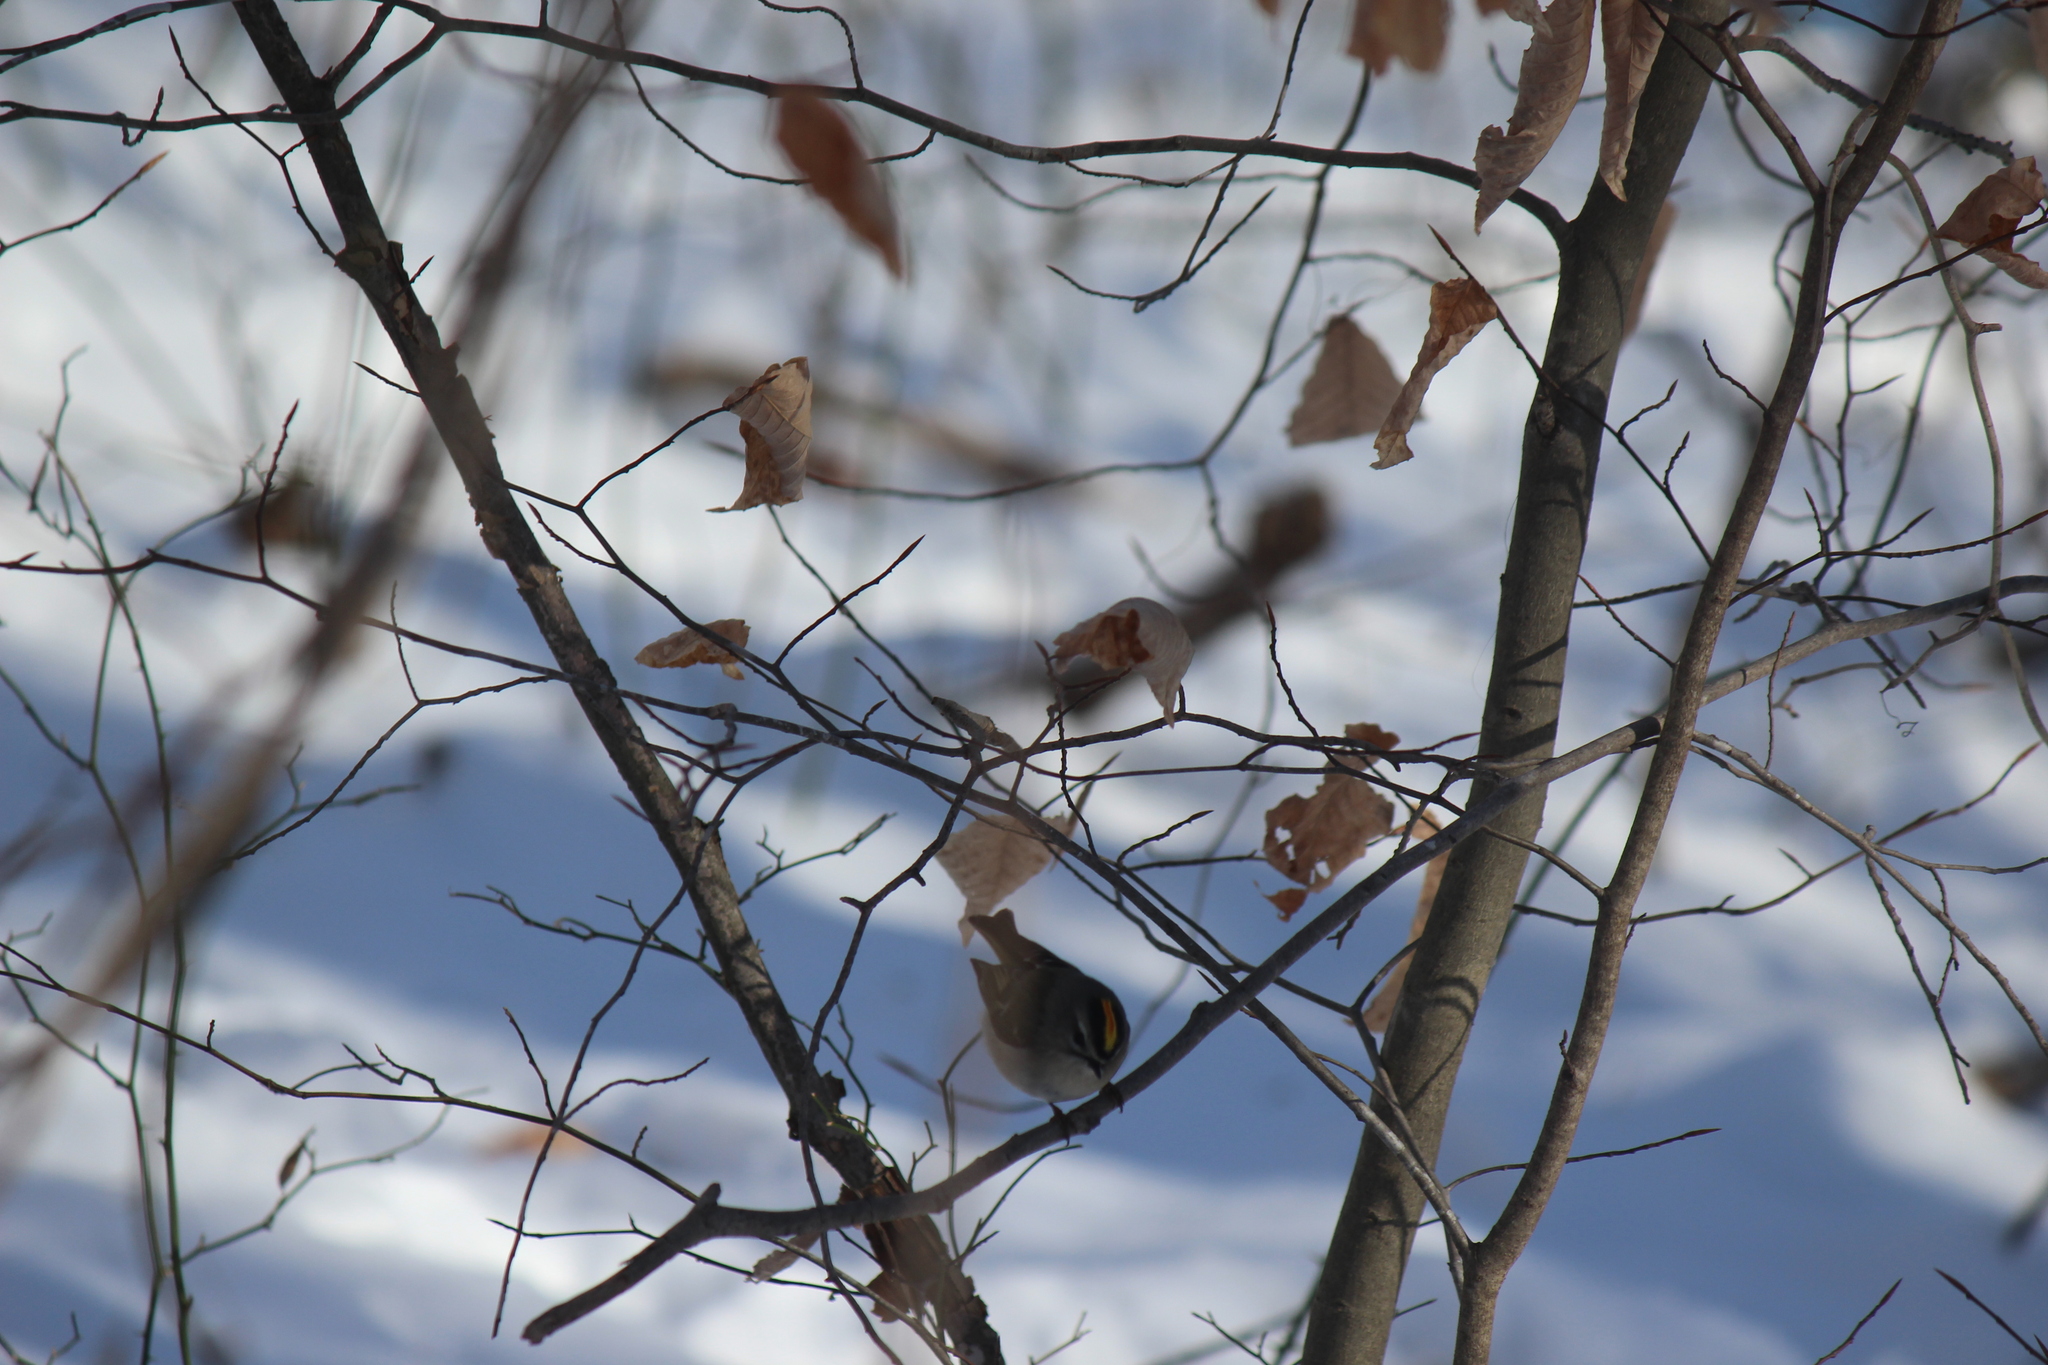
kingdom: Animalia
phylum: Chordata
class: Aves
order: Passeriformes
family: Regulidae
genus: Regulus
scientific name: Regulus satrapa
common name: Golden-crowned kinglet
